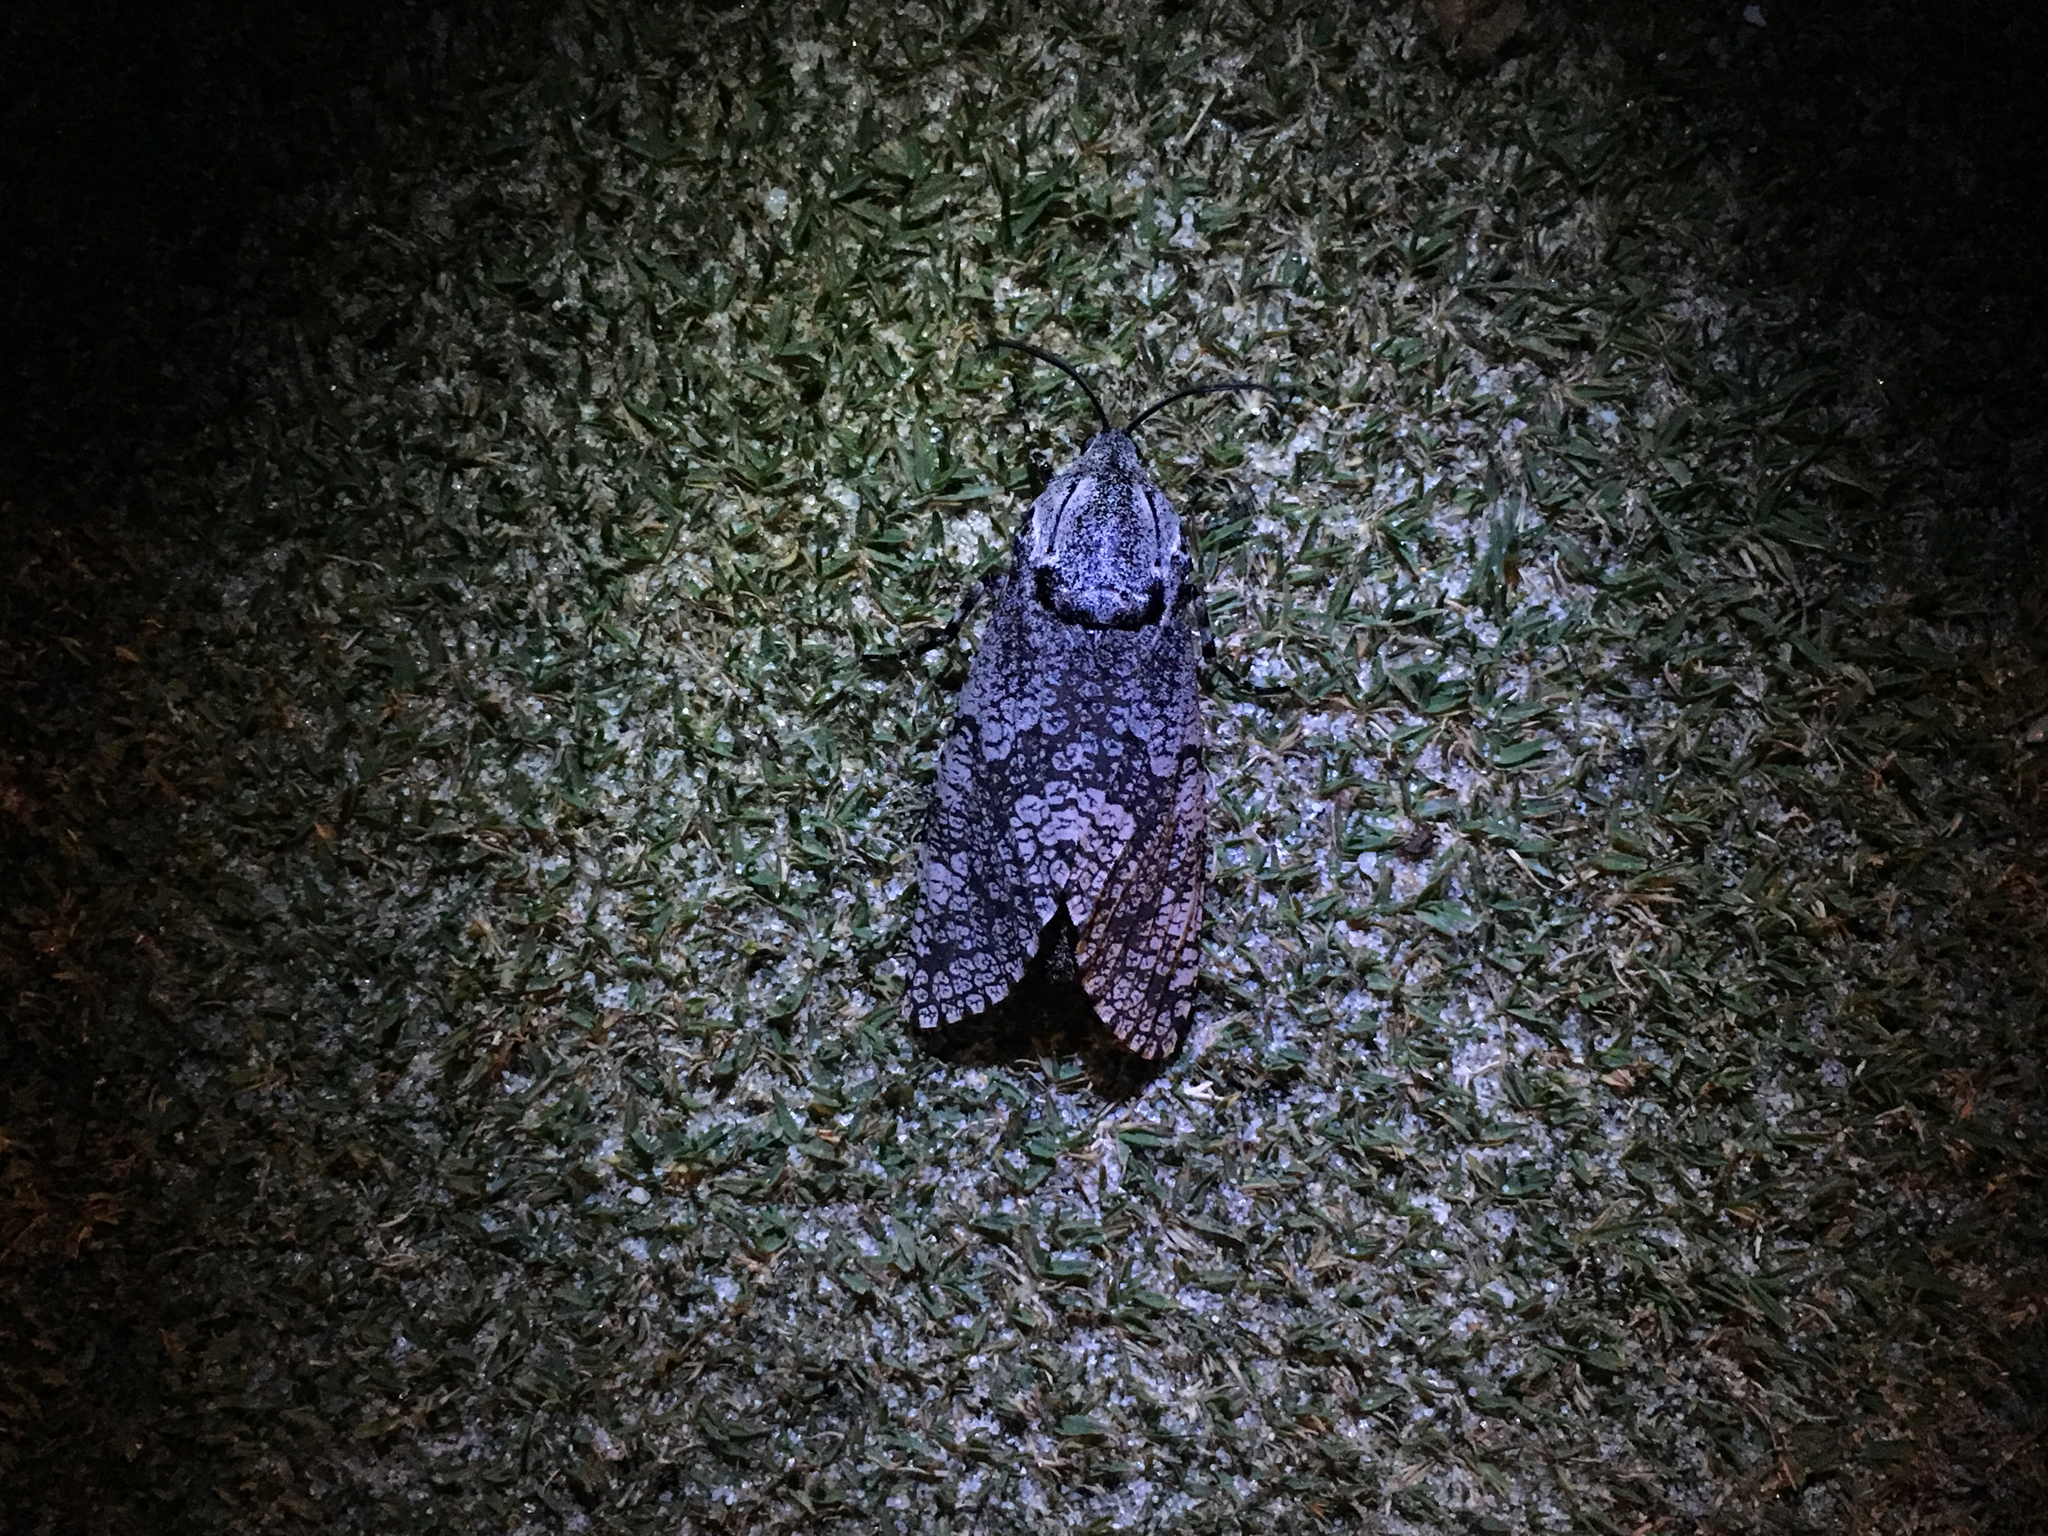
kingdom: Animalia
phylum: Arthropoda
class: Insecta
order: Lepidoptera
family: Cossidae
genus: Prionoxystus
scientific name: Prionoxystus robiniae
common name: Carpenterworm
